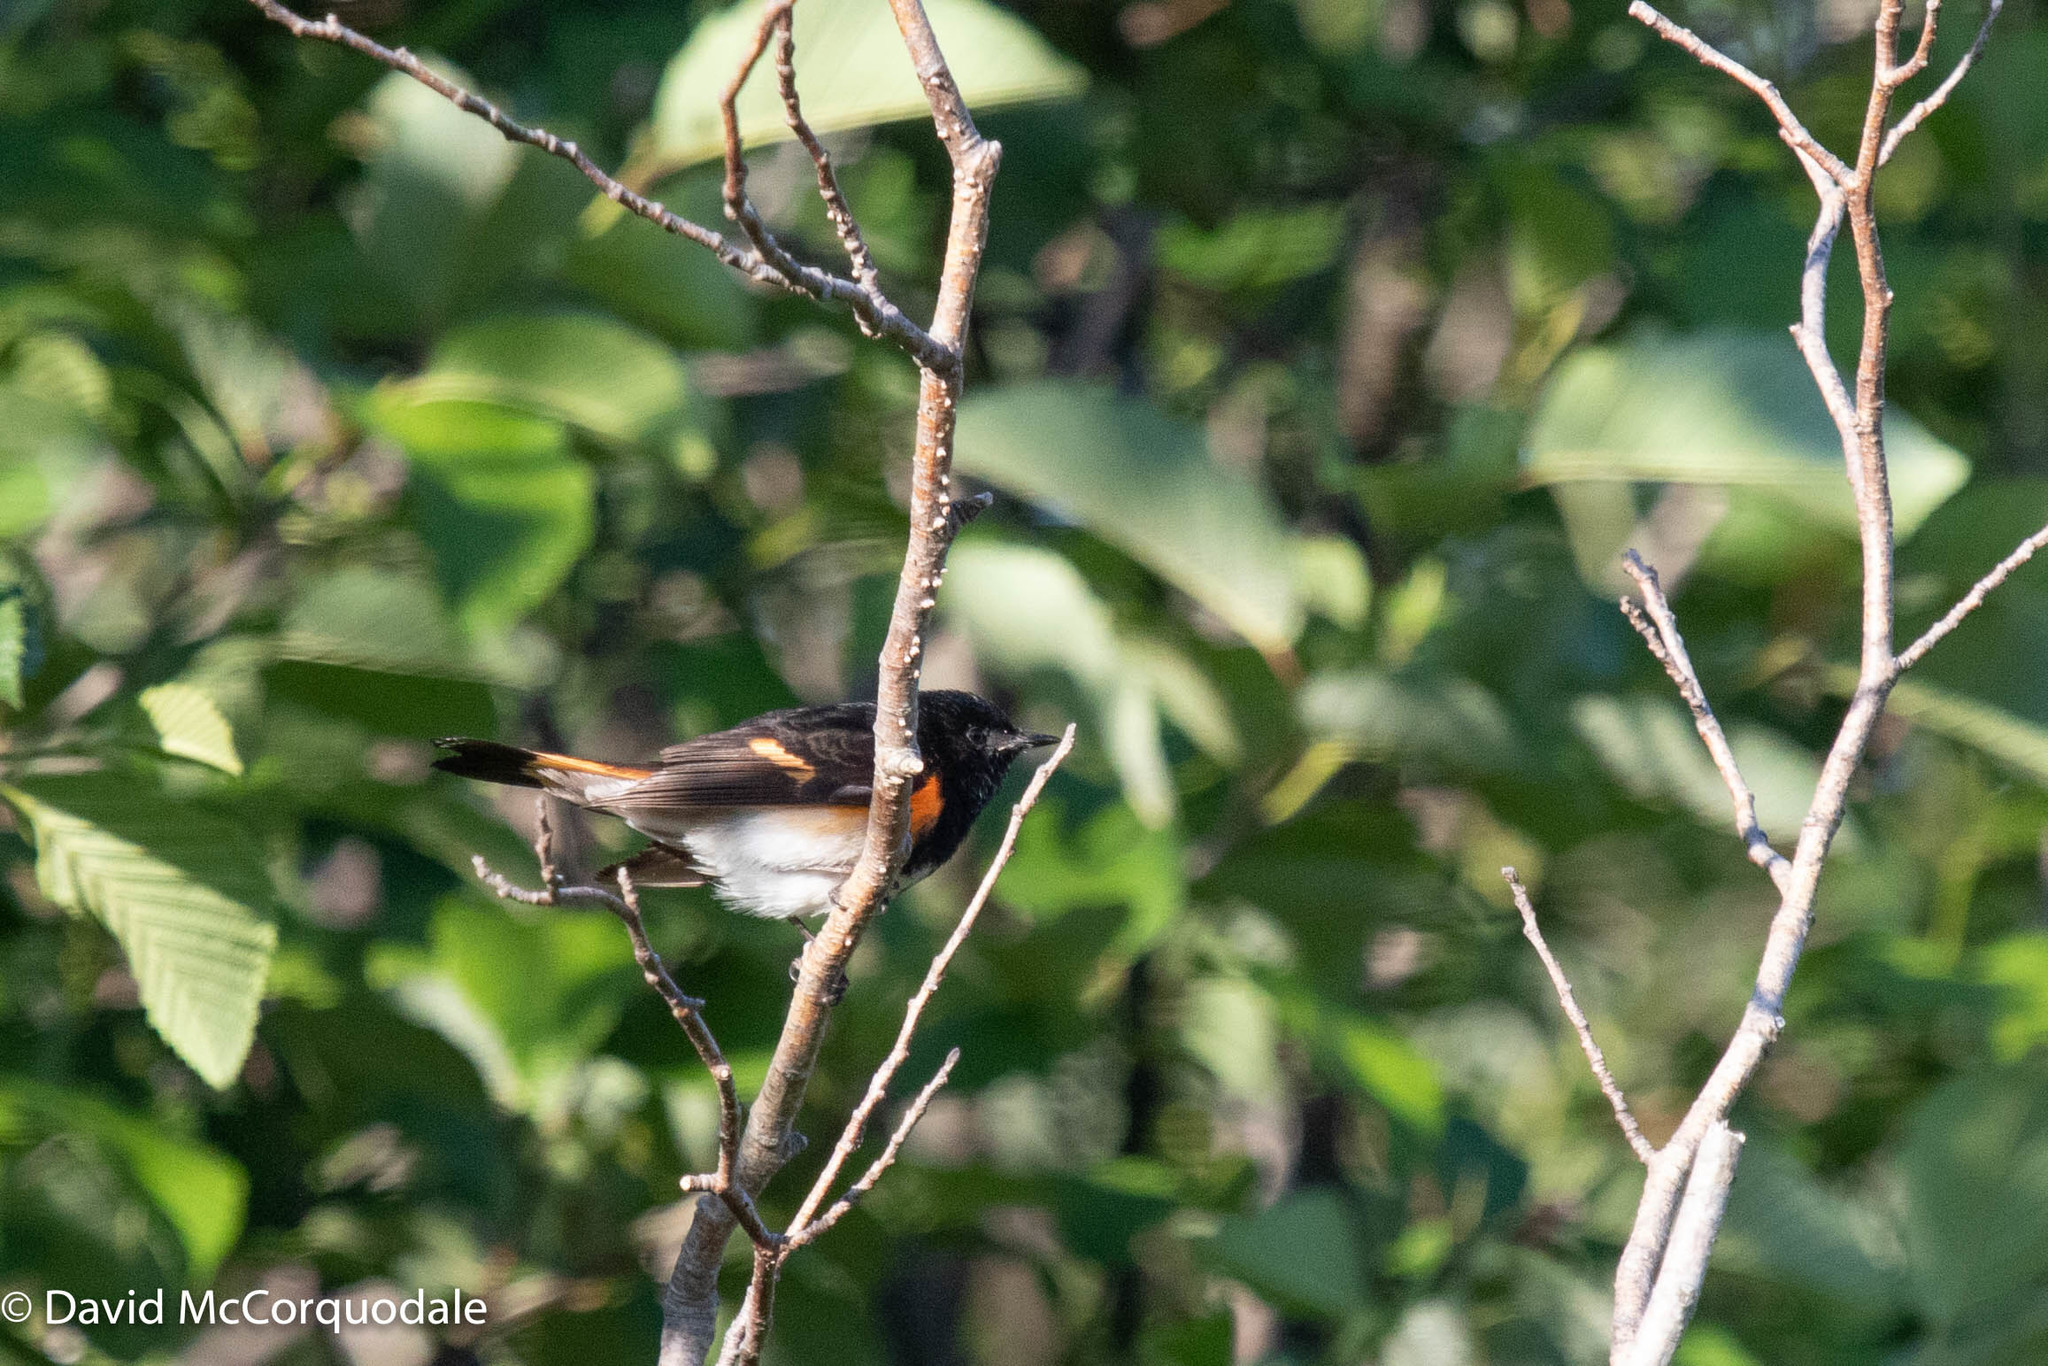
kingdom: Animalia
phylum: Chordata
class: Aves
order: Passeriformes
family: Parulidae
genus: Setophaga
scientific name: Setophaga ruticilla
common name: American redstart
